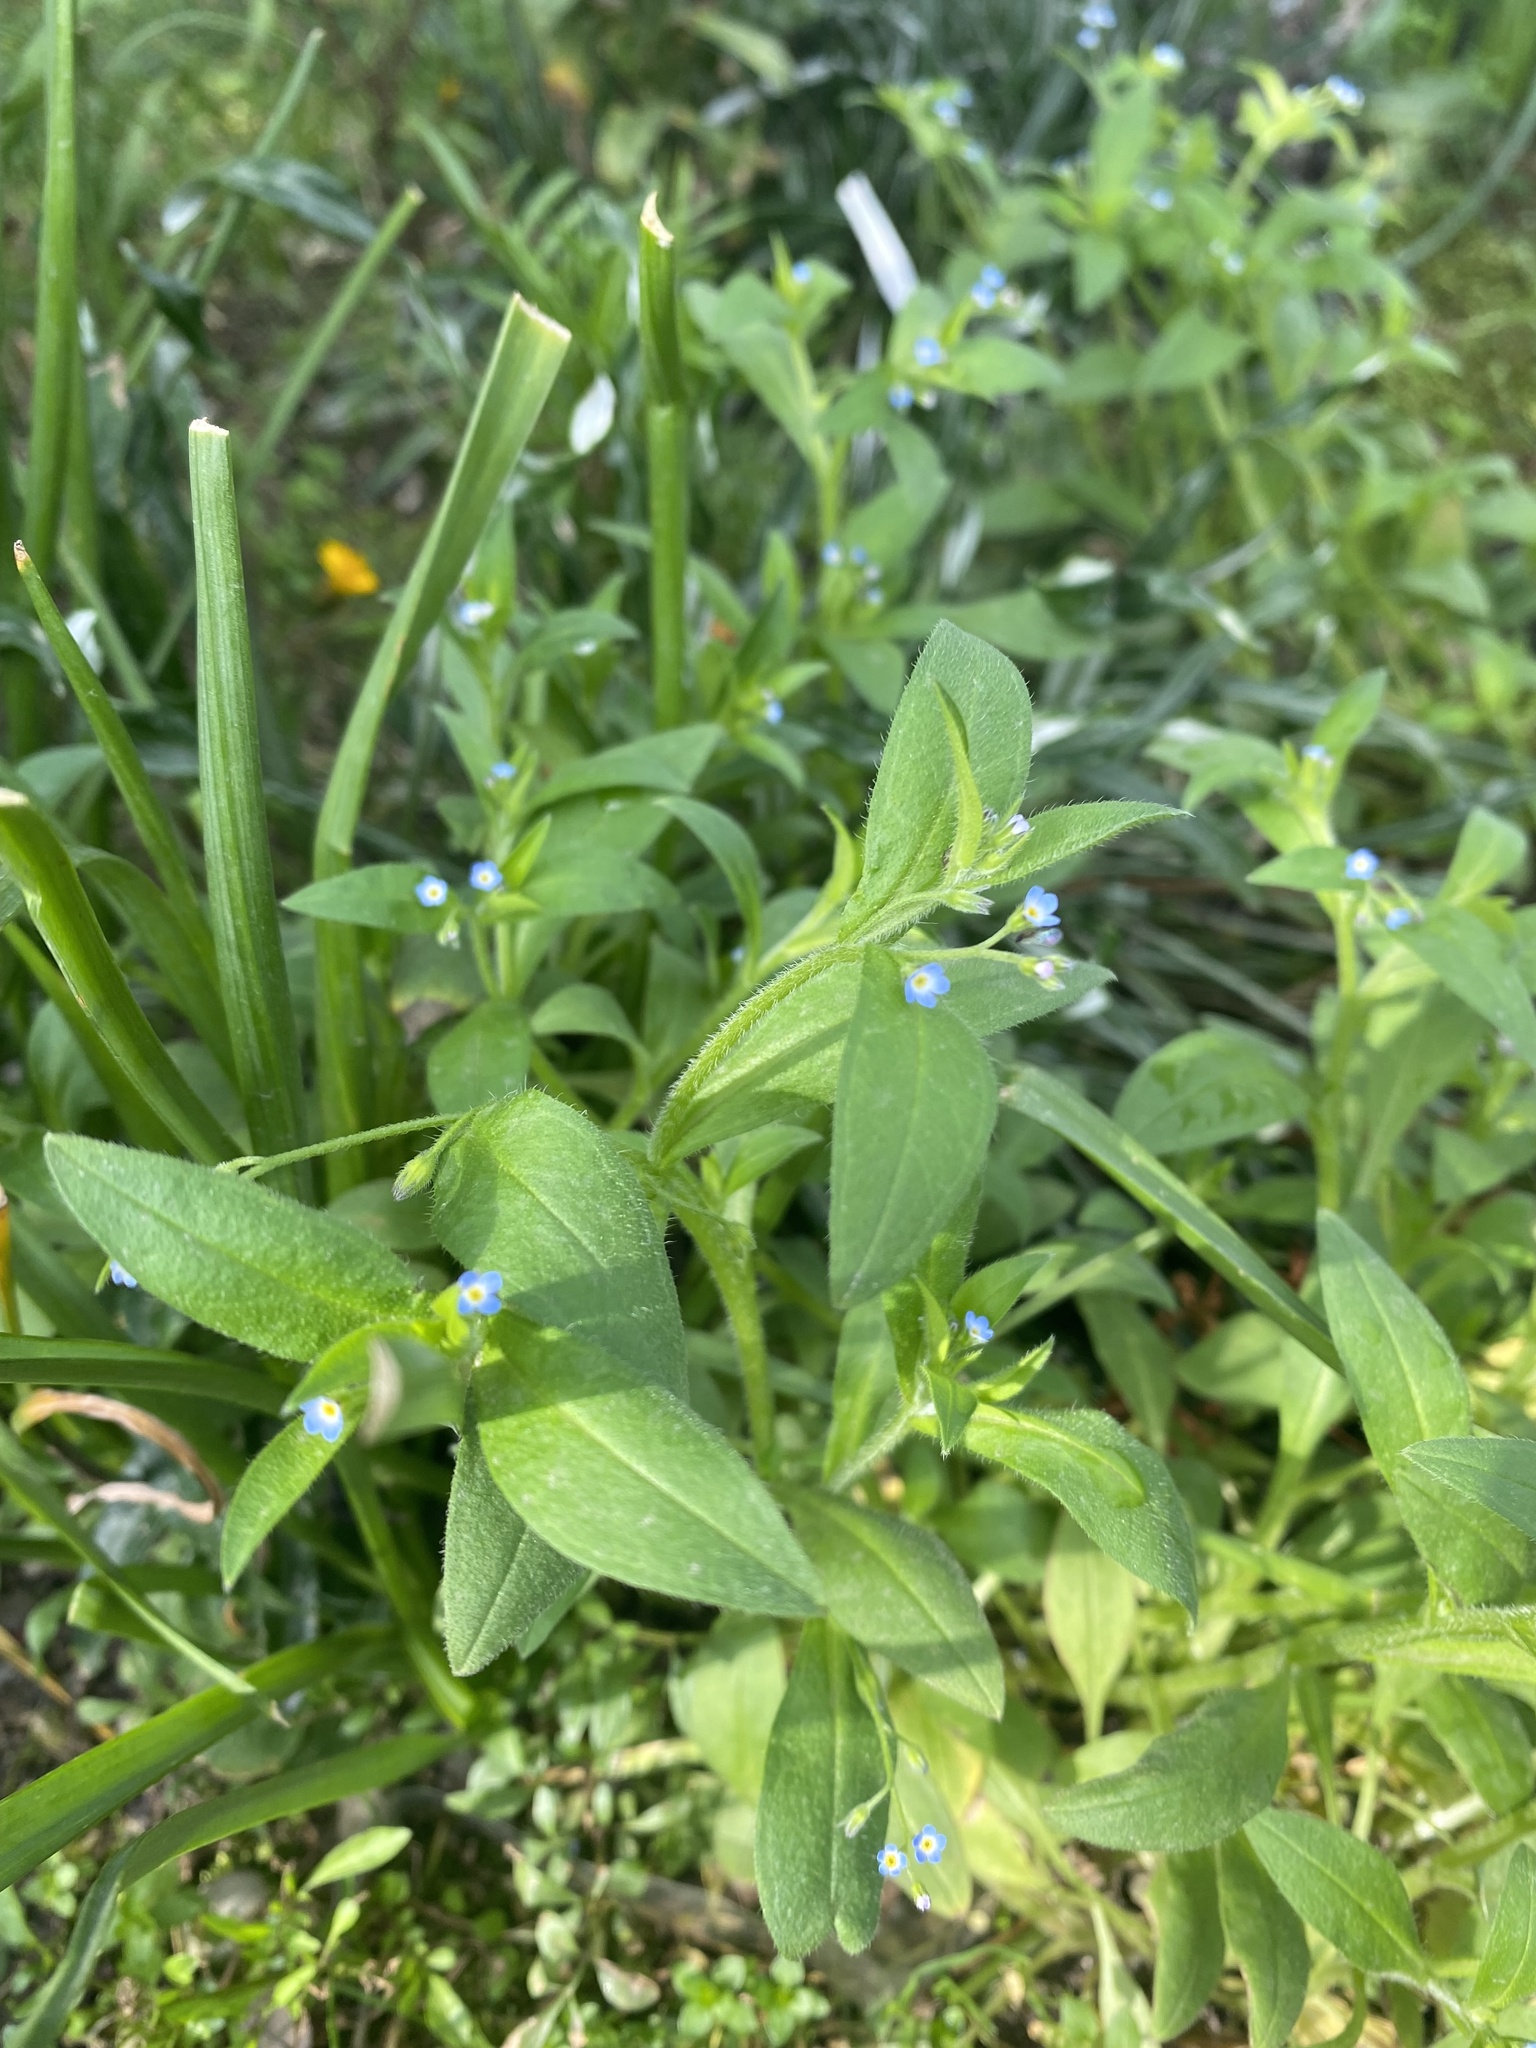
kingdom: Plantae
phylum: Tracheophyta
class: Magnoliopsida
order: Boraginales
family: Boraginaceae
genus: Myosotis
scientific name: Myosotis sparsiflora
